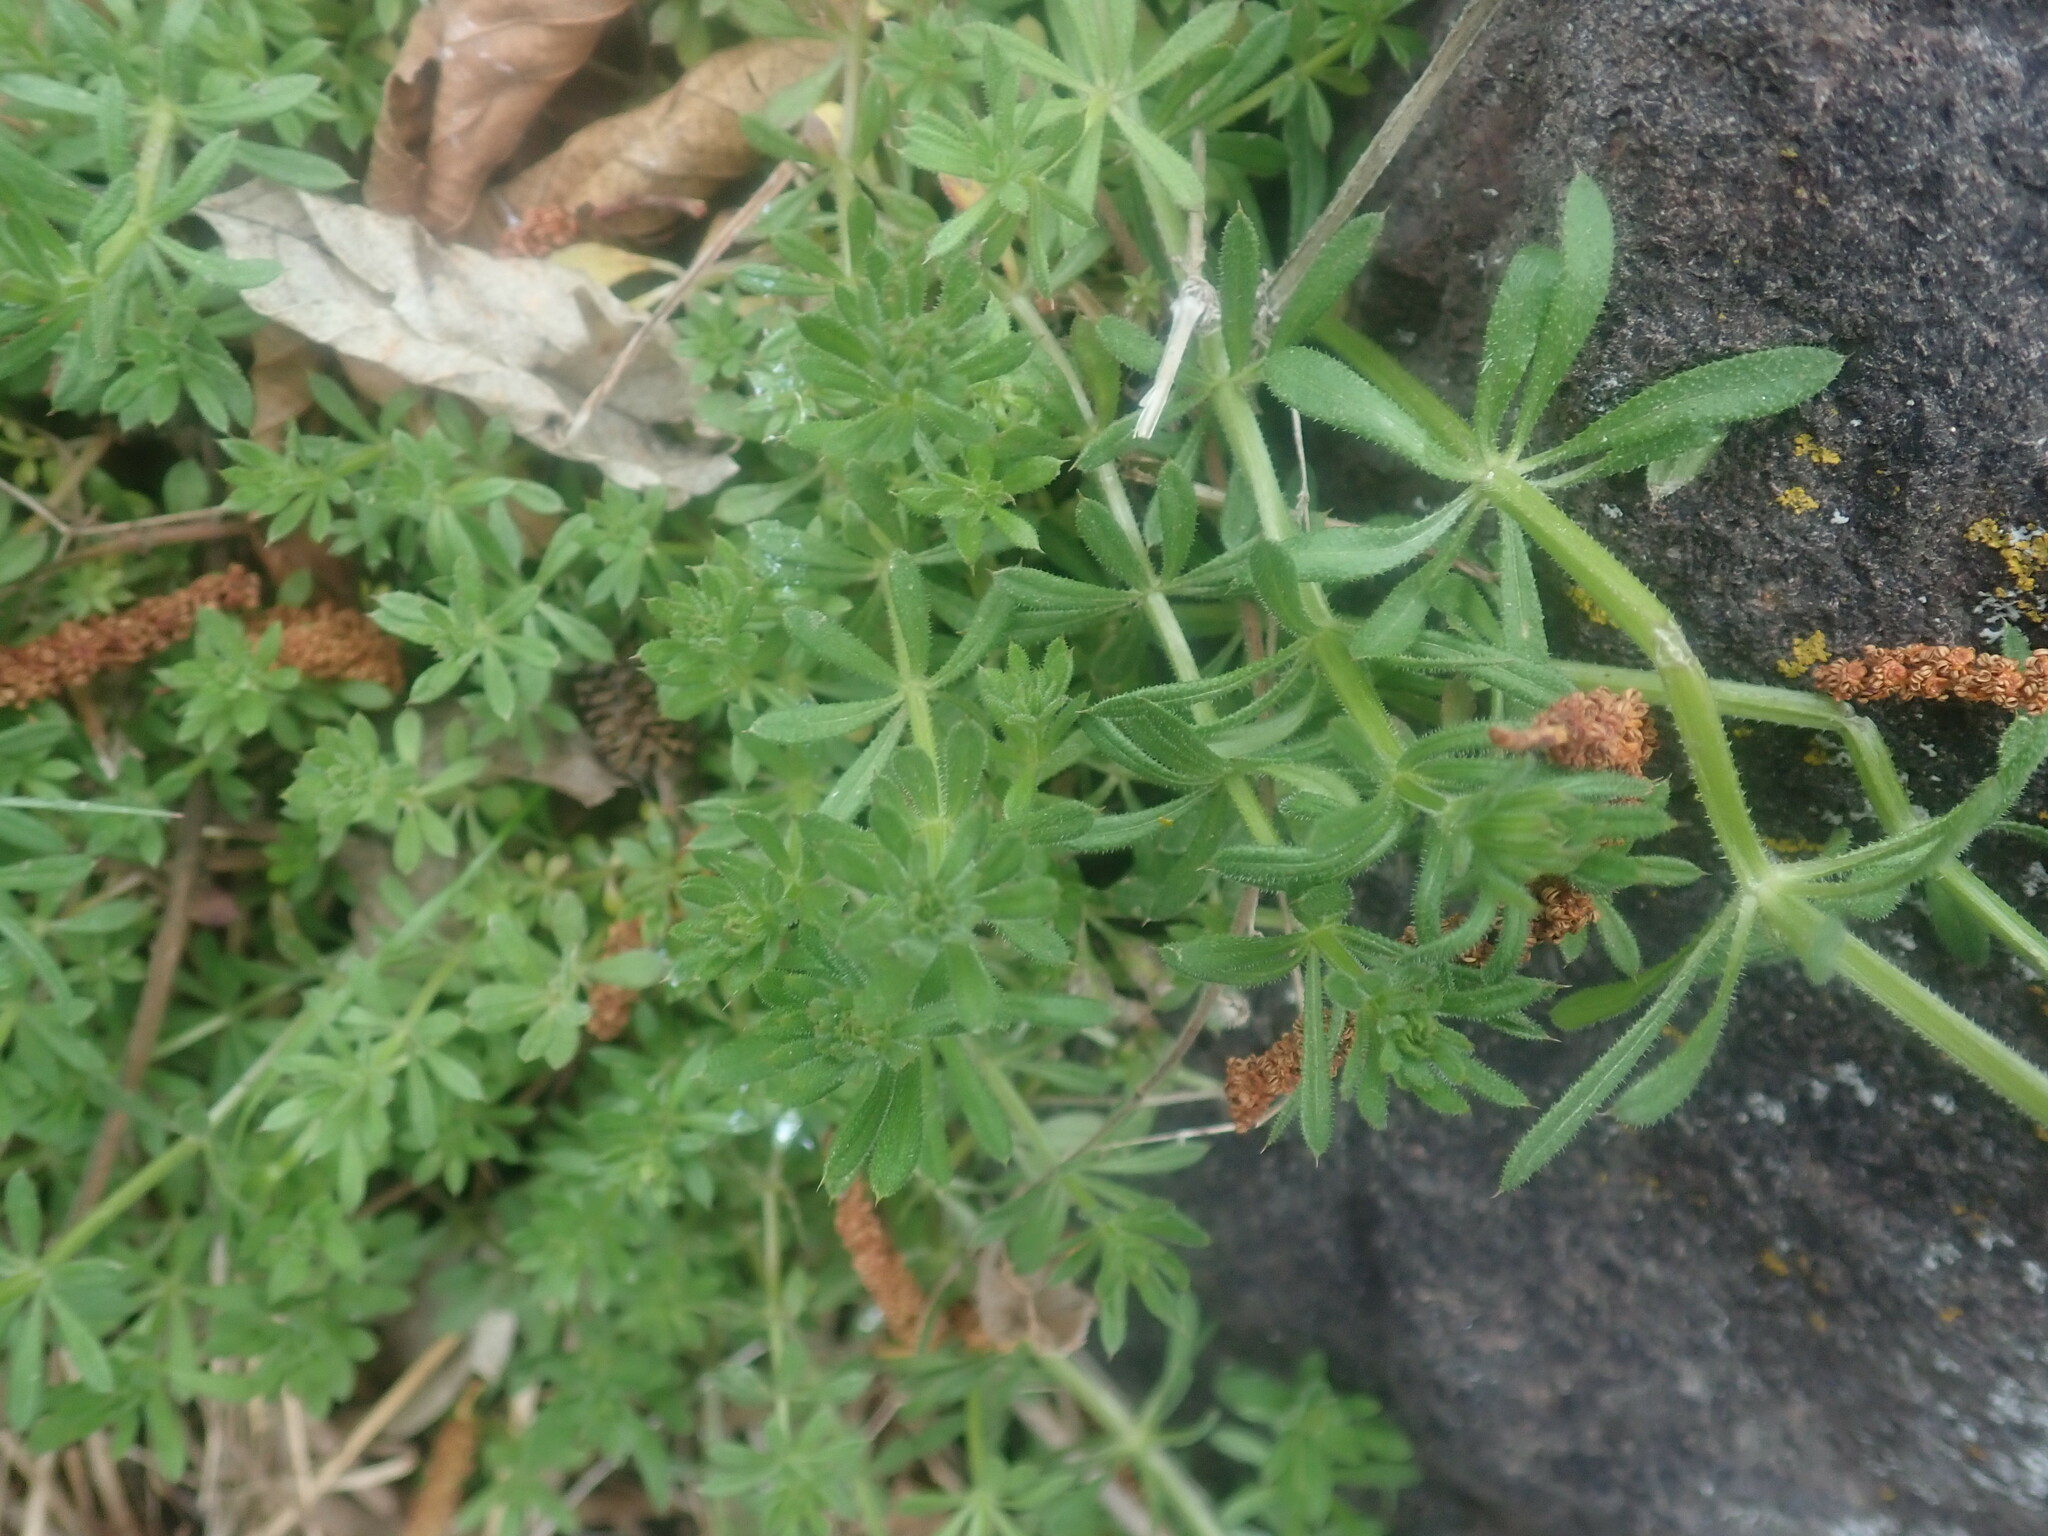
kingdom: Plantae
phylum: Tracheophyta
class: Magnoliopsida
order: Gentianales
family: Rubiaceae
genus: Galium
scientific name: Galium aparine
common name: Cleavers
